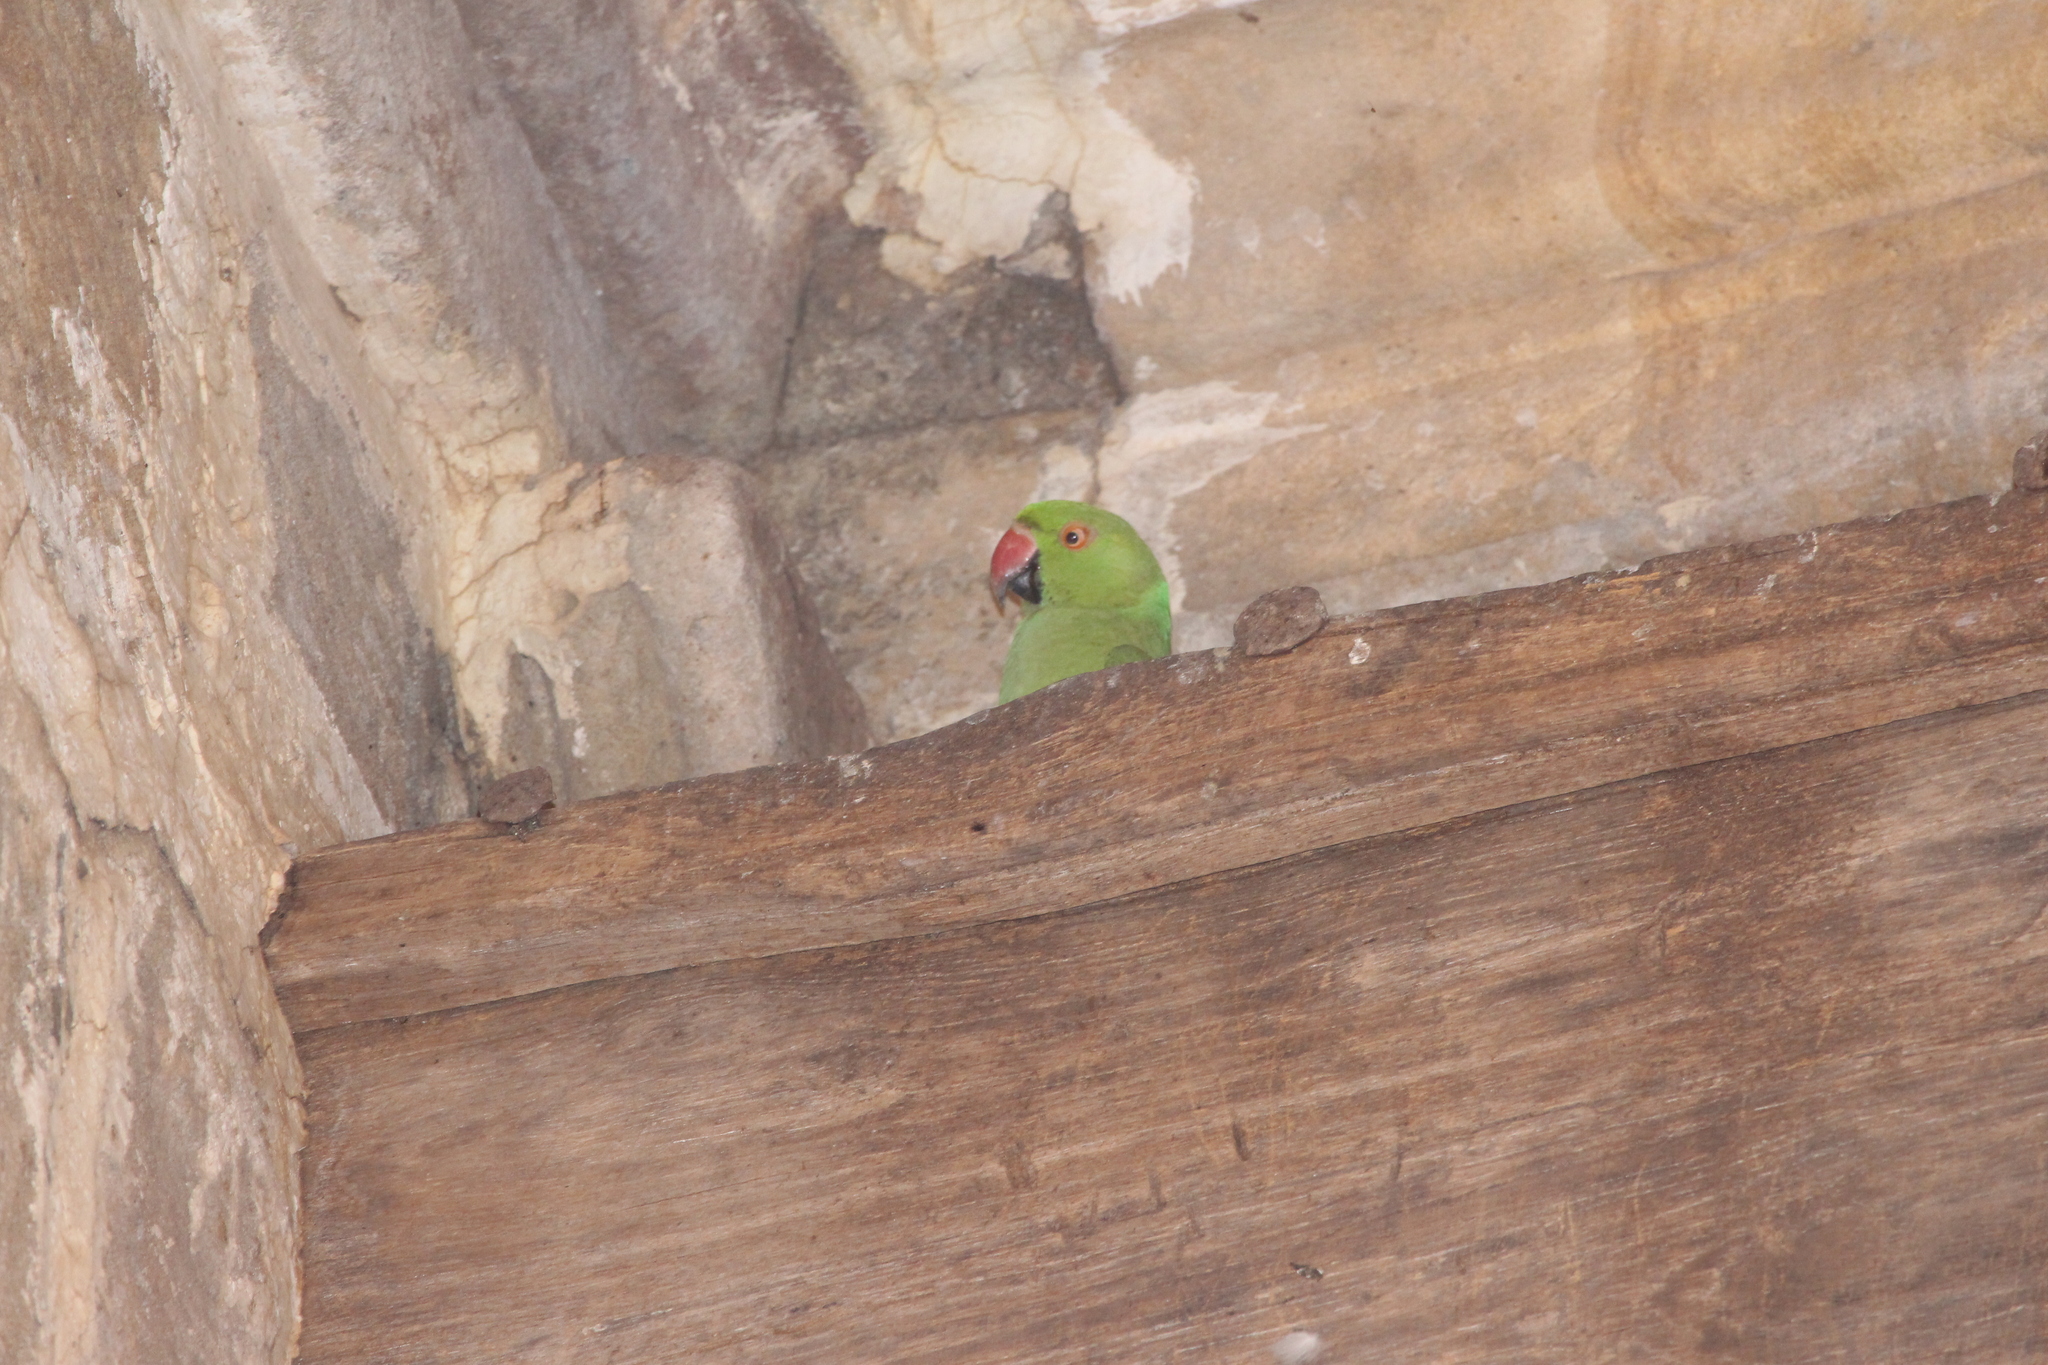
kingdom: Animalia
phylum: Chordata
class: Aves
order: Psittaciformes
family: Psittacidae
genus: Psittacula
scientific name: Psittacula krameri
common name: Rose-ringed parakeet
